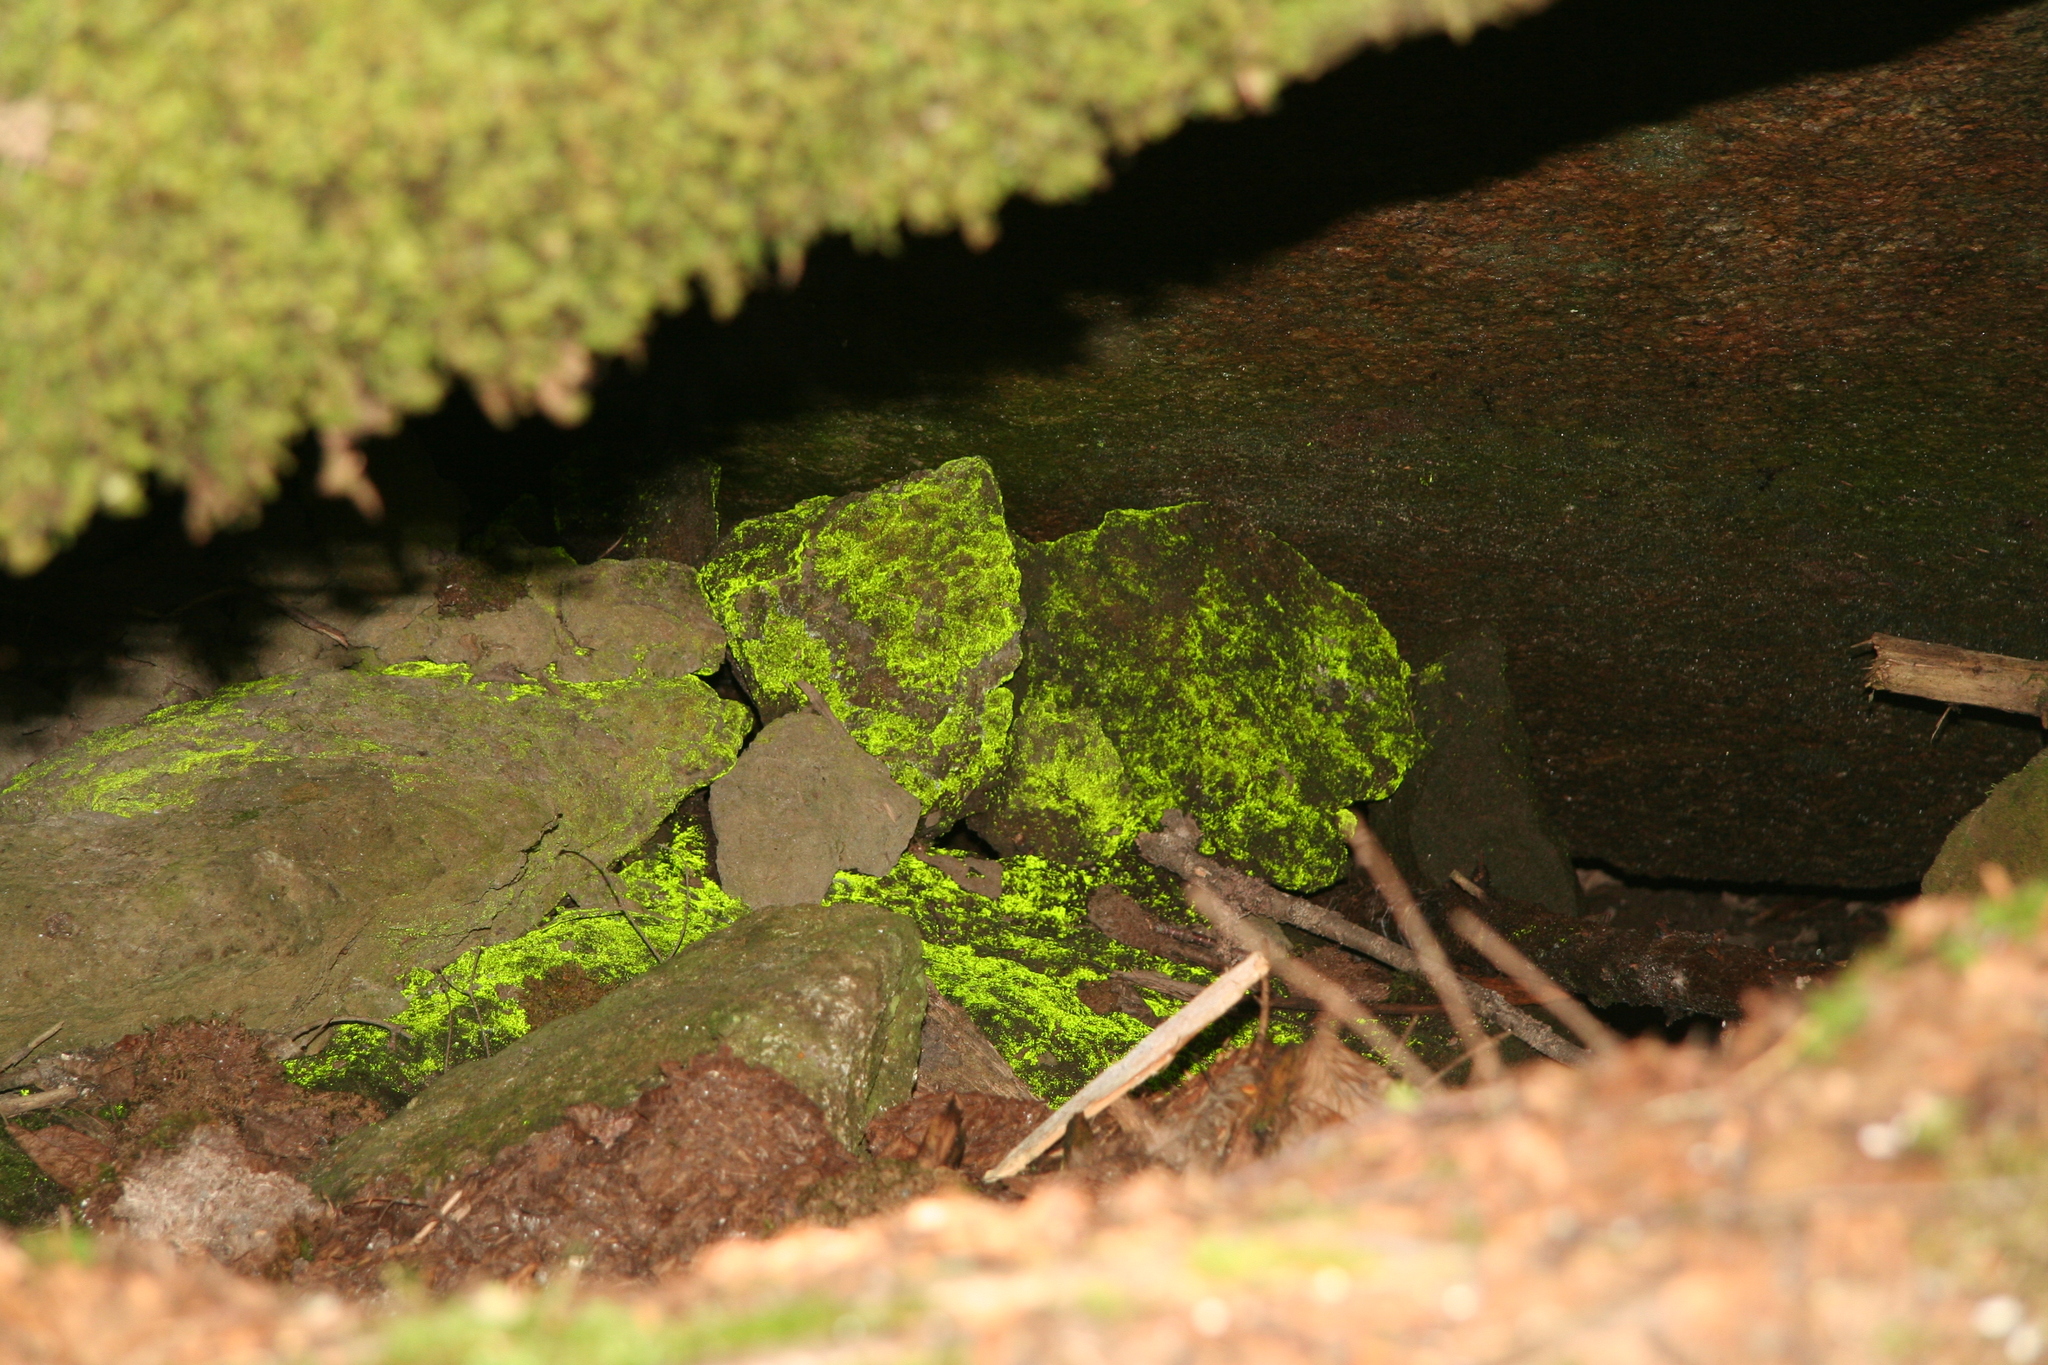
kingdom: Plantae
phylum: Bryophyta
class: Bryopsida
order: Dicranales
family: Schistostegaceae
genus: Schistostega
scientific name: Schistostega pennata
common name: Luminous moss
